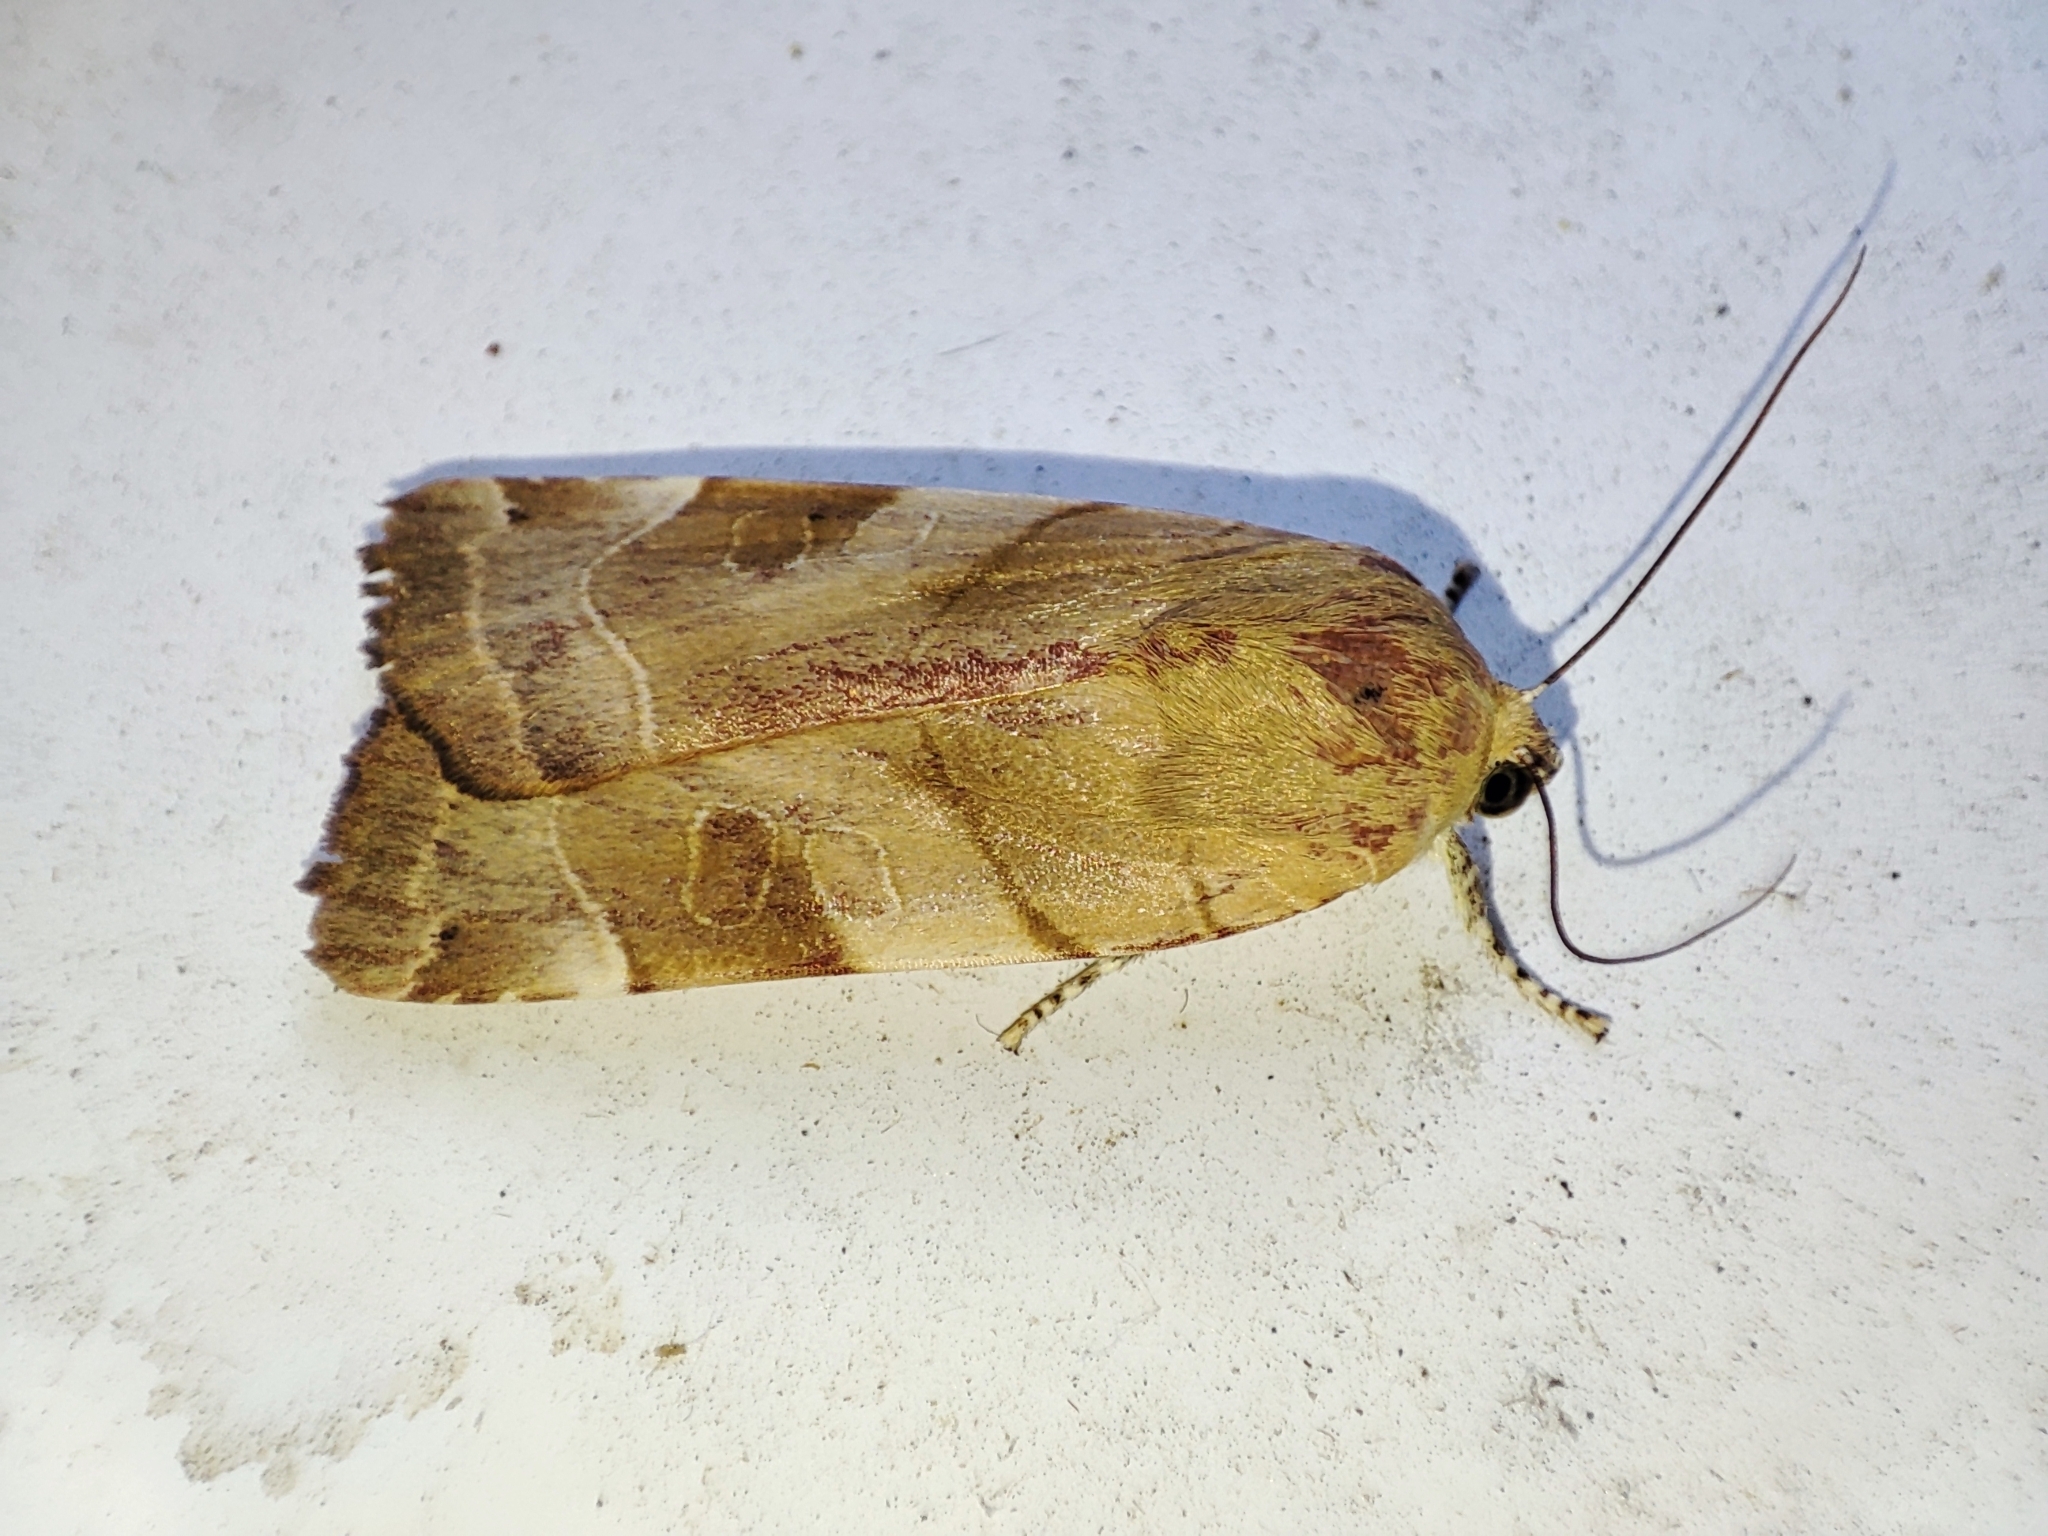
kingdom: Animalia
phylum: Arthropoda
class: Insecta
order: Lepidoptera
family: Noctuidae
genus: Noctua
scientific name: Noctua fimbriata
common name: Broad-bordered yellow underwing
